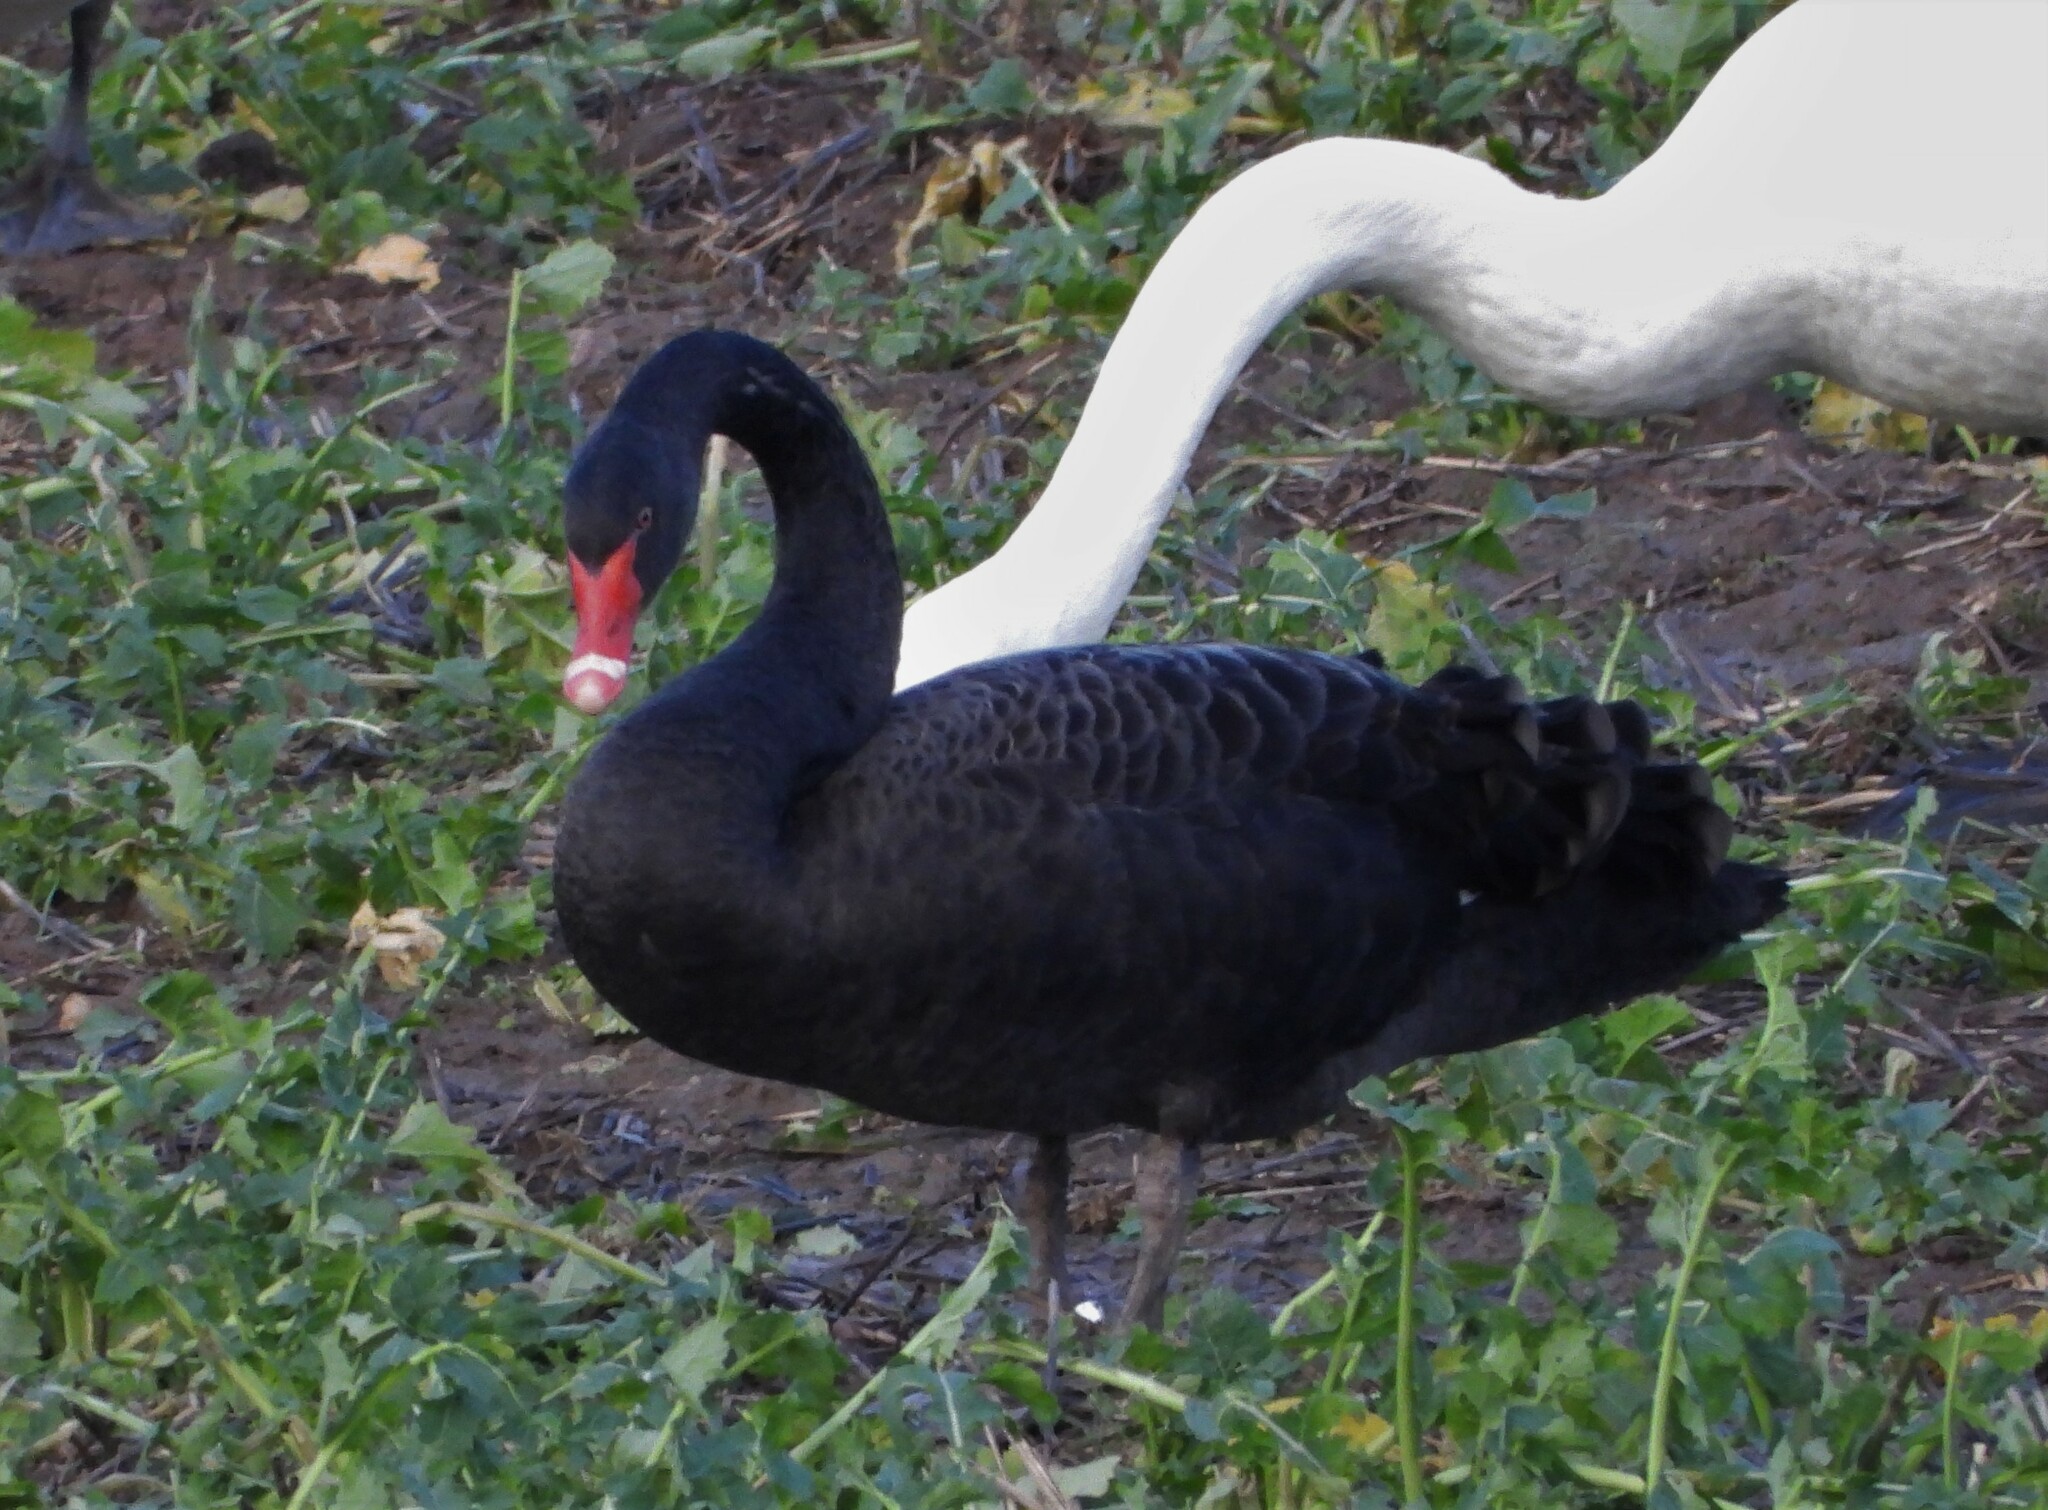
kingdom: Animalia
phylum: Chordata
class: Aves
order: Anseriformes
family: Anatidae
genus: Cygnus
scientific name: Cygnus atratus
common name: Black swan
